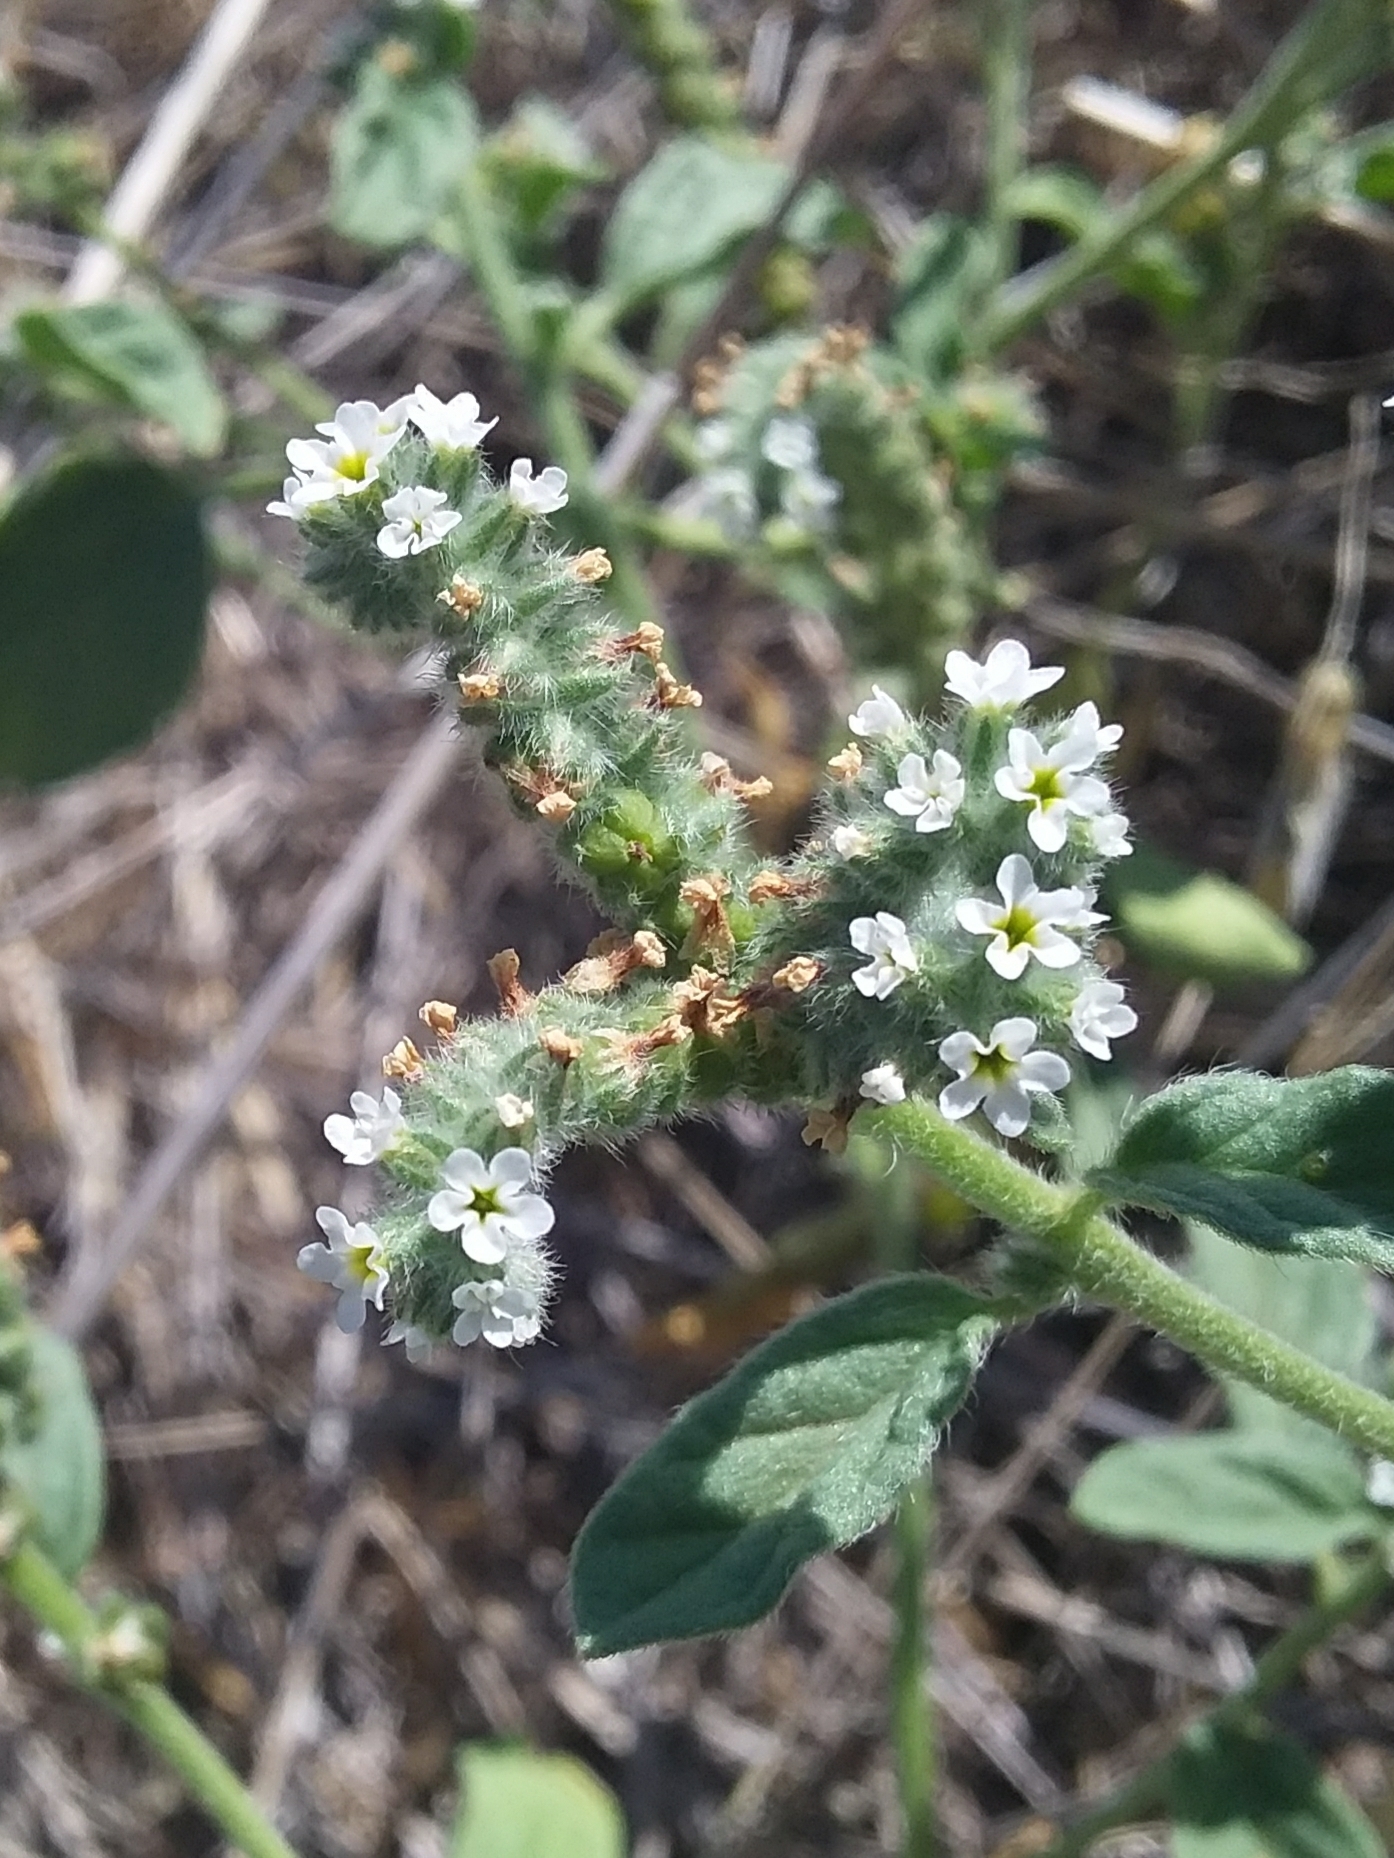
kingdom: Plantae
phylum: Tracheophyta
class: Magnoliopsida
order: Boraginales
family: Heliotropiaceae
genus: Heliotropium
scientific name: Heliotropium europaeum
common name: European heliotrope
